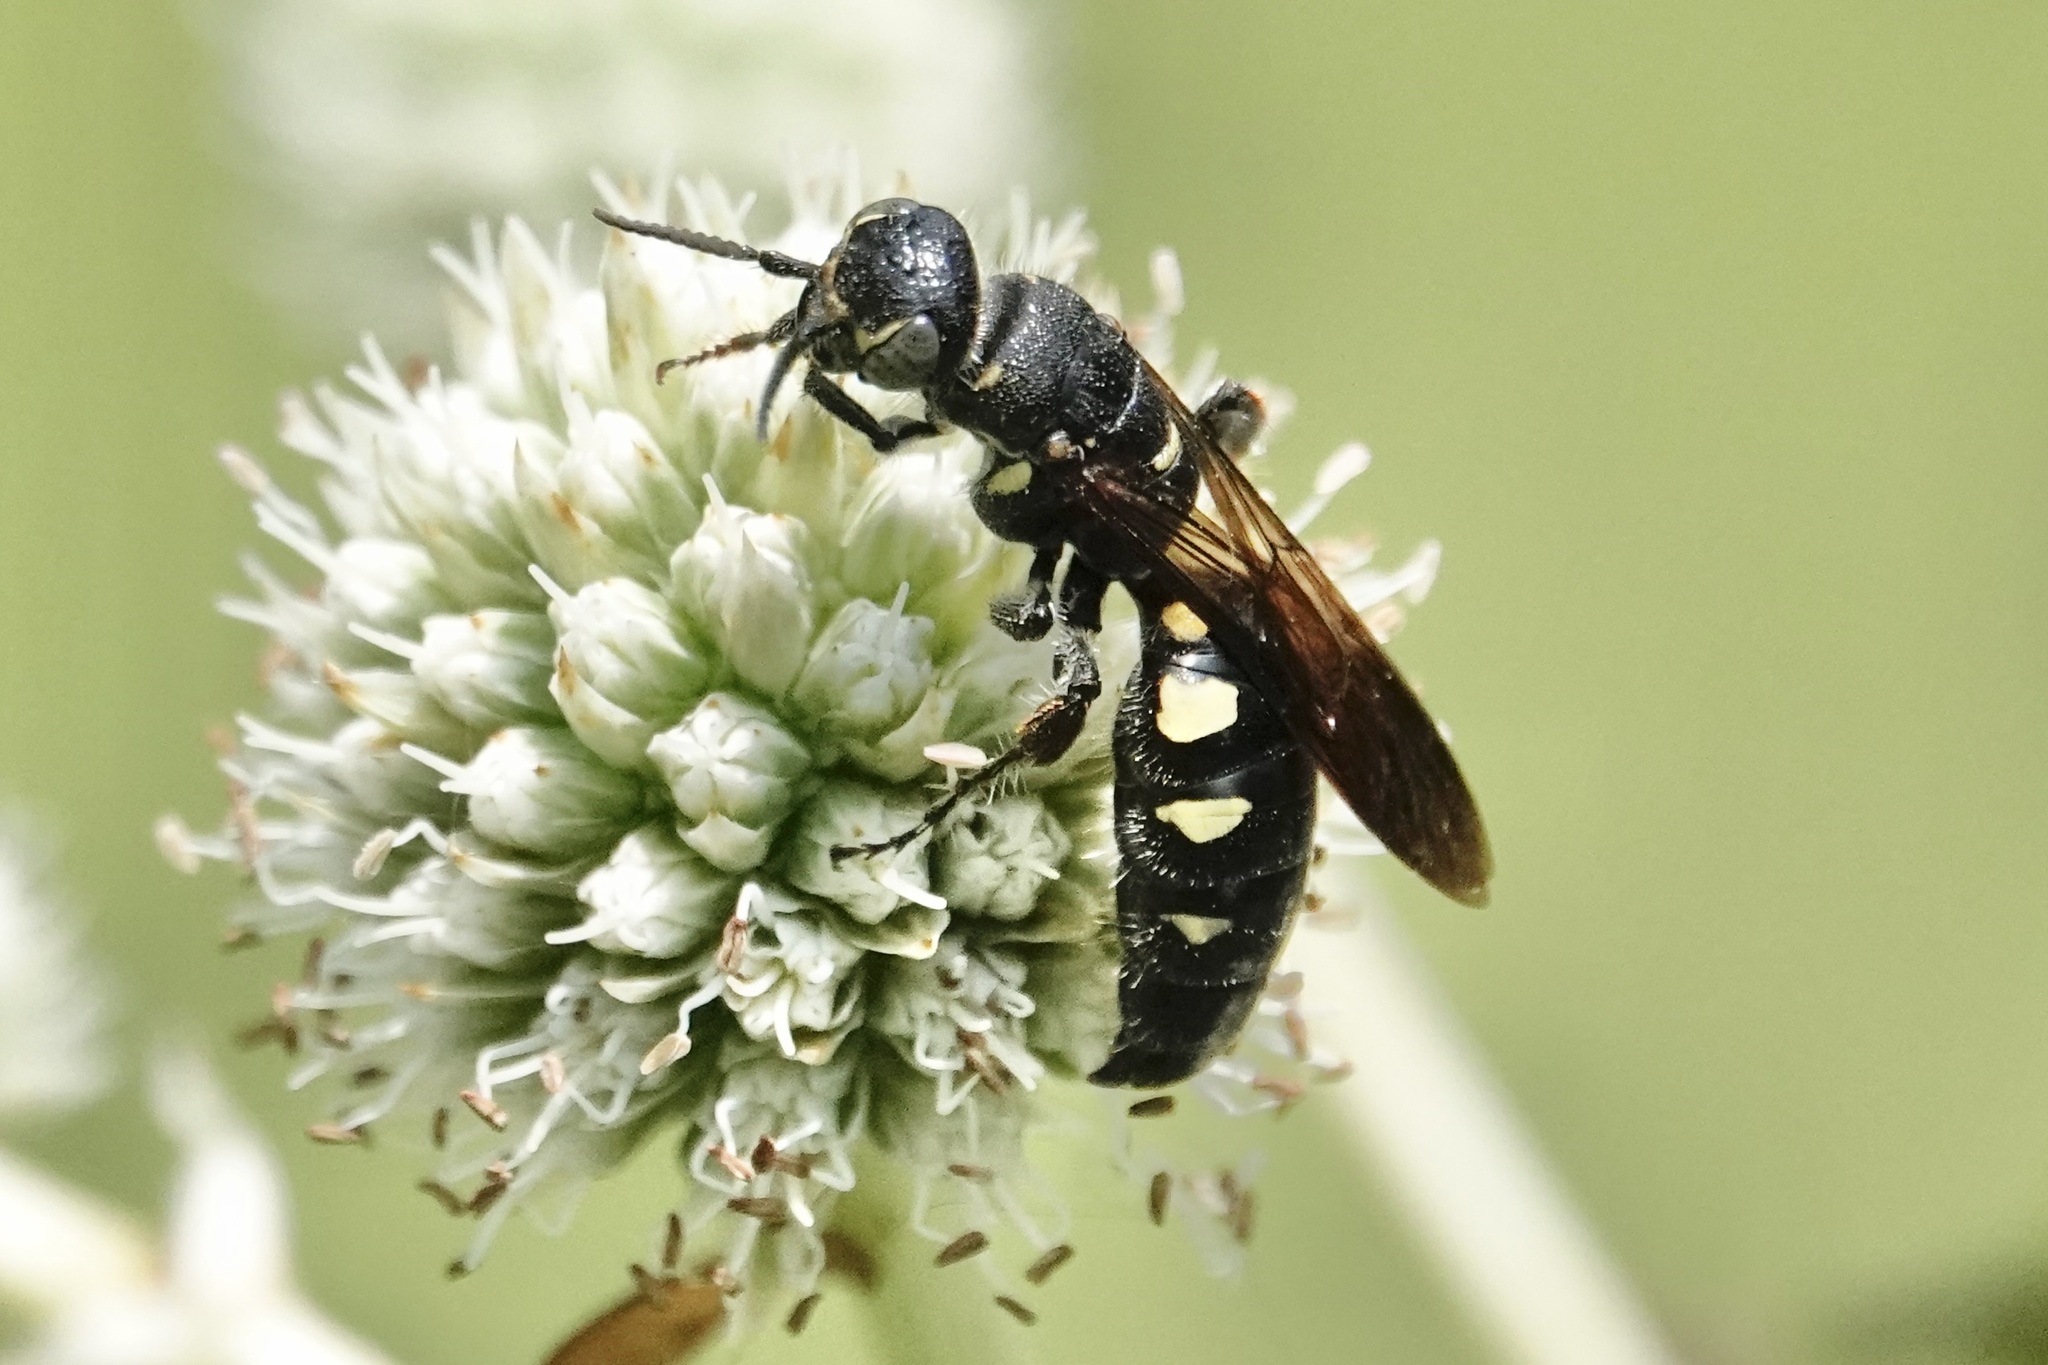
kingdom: Animalia
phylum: Arthropoda
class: Insecta
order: Hymenoptera
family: Tiphiidae
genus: Myzinum
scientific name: Myzinum obscurum
